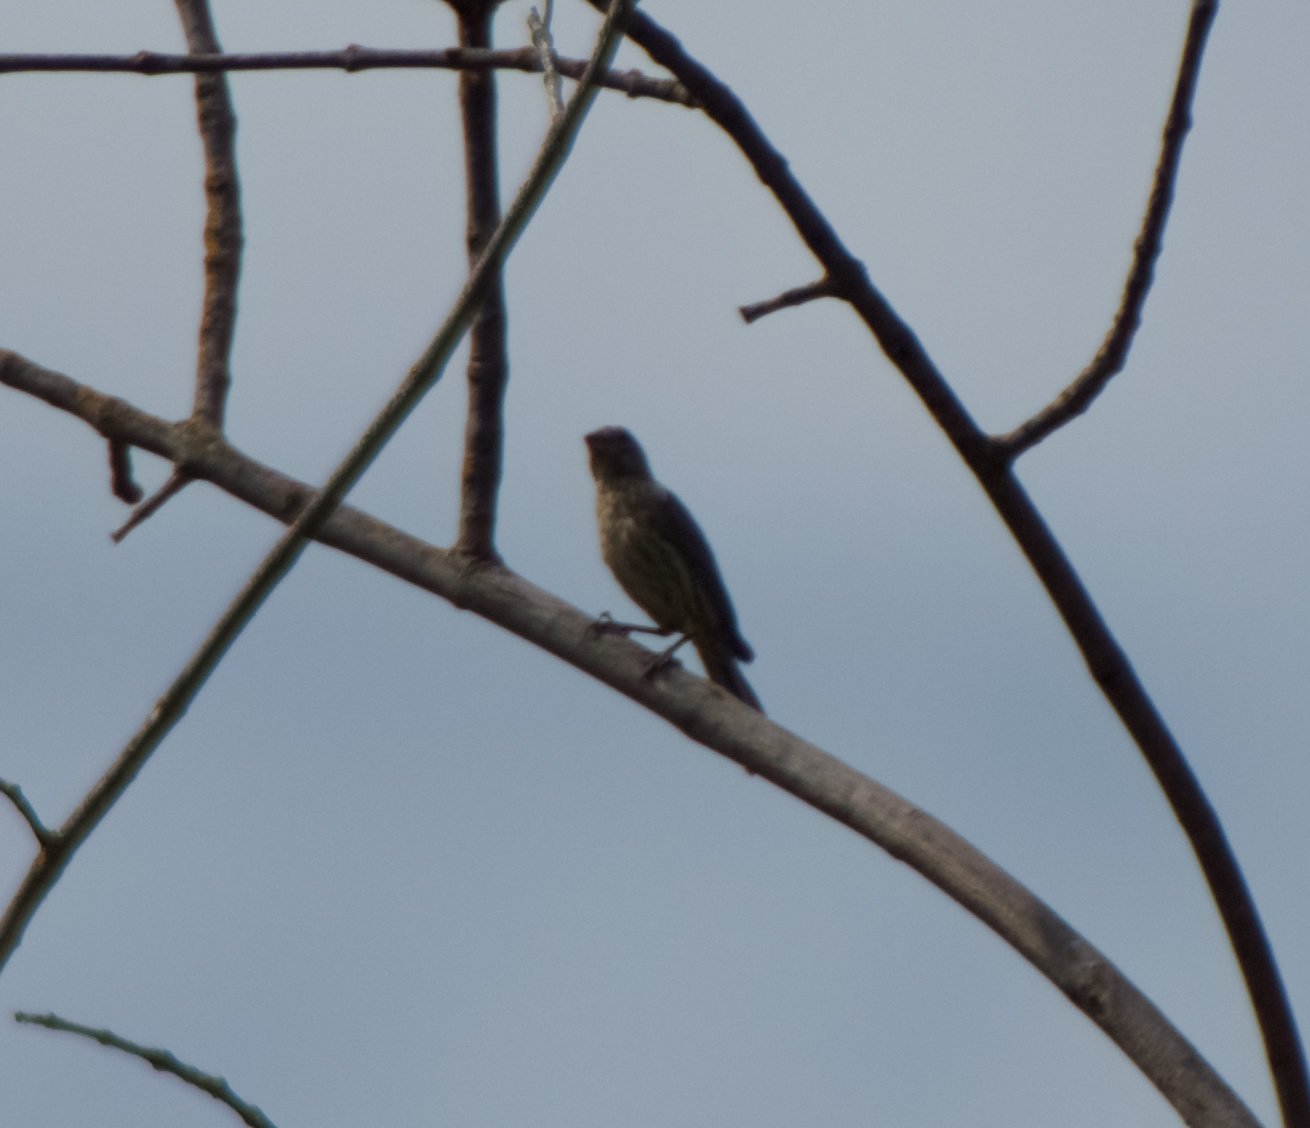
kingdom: Animalia
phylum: Chordata
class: Aves
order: Passeriformes
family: Fringillidae
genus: Haemorhous
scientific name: Haemorhous mexicanus
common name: House finch
